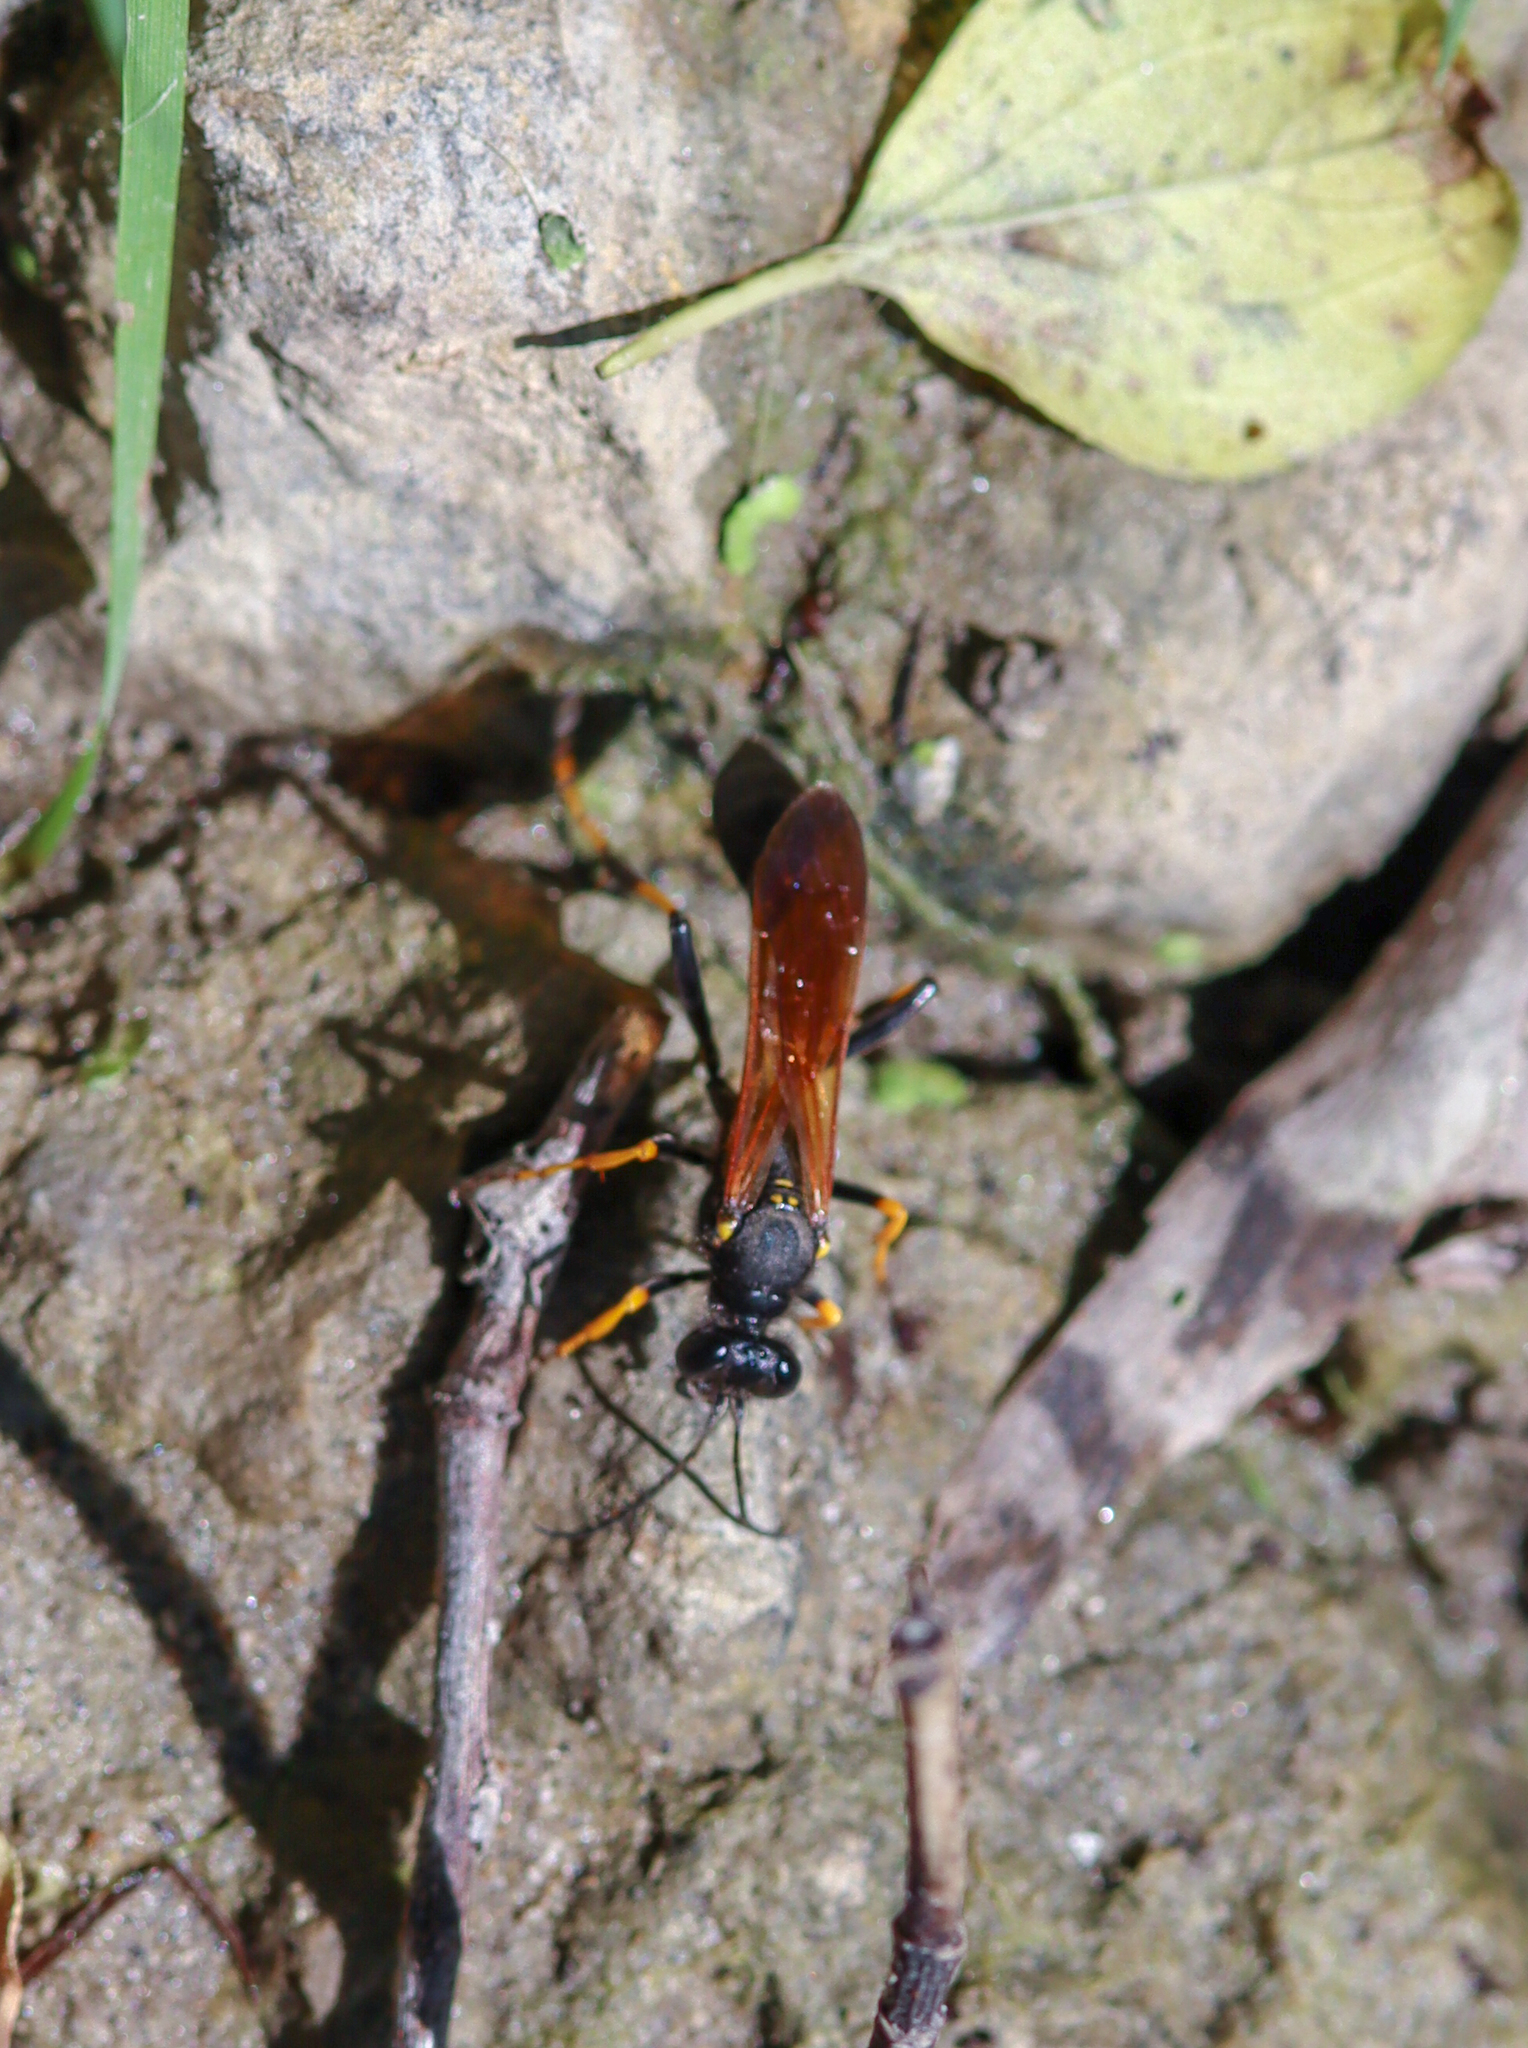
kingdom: Animalia
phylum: Arthropoda
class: Insecta
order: Hymenoptera
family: Sphecidae
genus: Sceliphron
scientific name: Sceliphron caementarium
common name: Mud dauber
